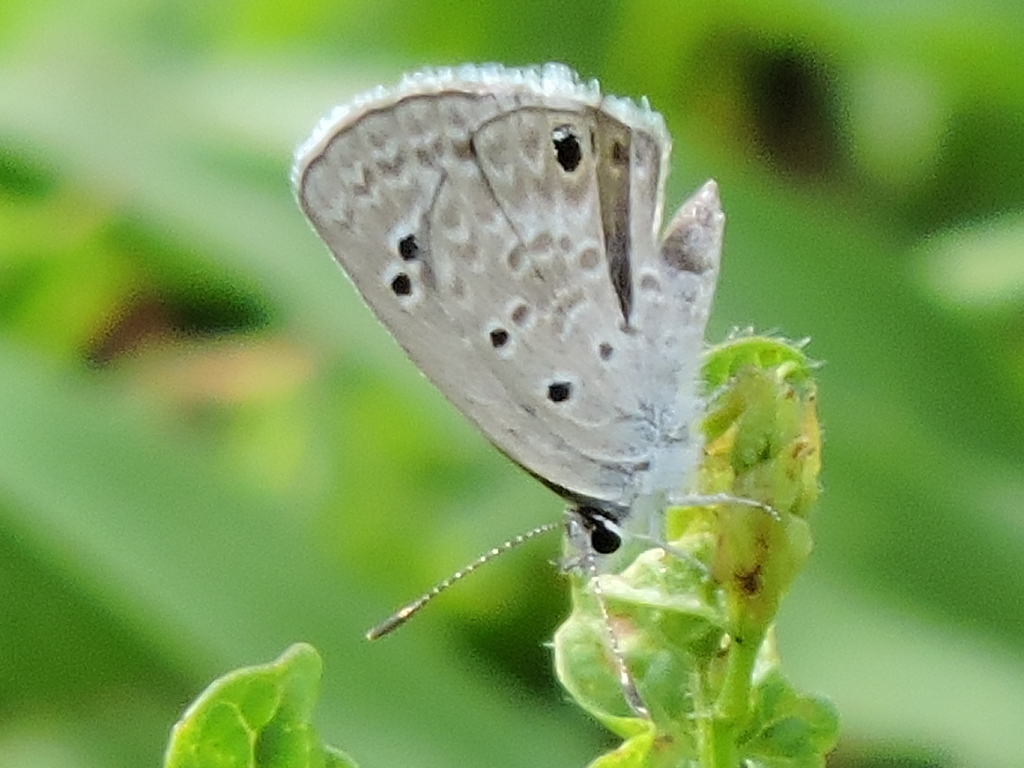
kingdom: Animalia
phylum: Arthropoda
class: Insecta
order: Lepidoptera
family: Lycaenidae
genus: Echinargus
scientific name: Echinargus isola
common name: Reakirt's blue
